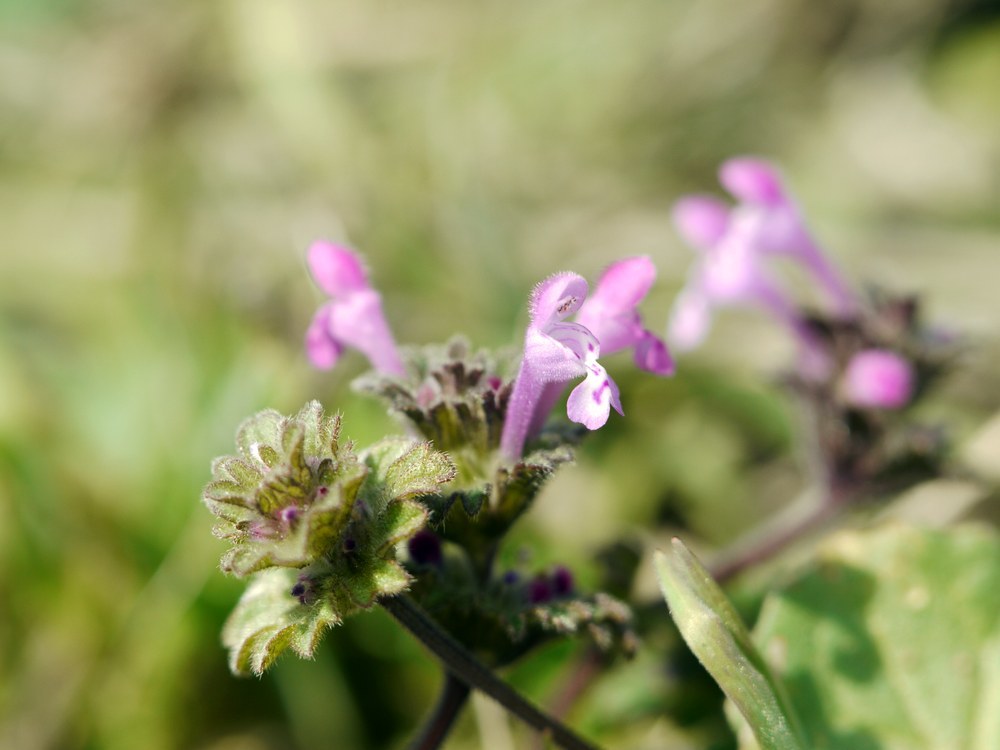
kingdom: Plantae
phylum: Tracheophyta
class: Magnoliopsida
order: Lamiales
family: Lamiaceae
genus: Lamium
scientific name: Lamium amplexicaule
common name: Henbit dead-nettle
